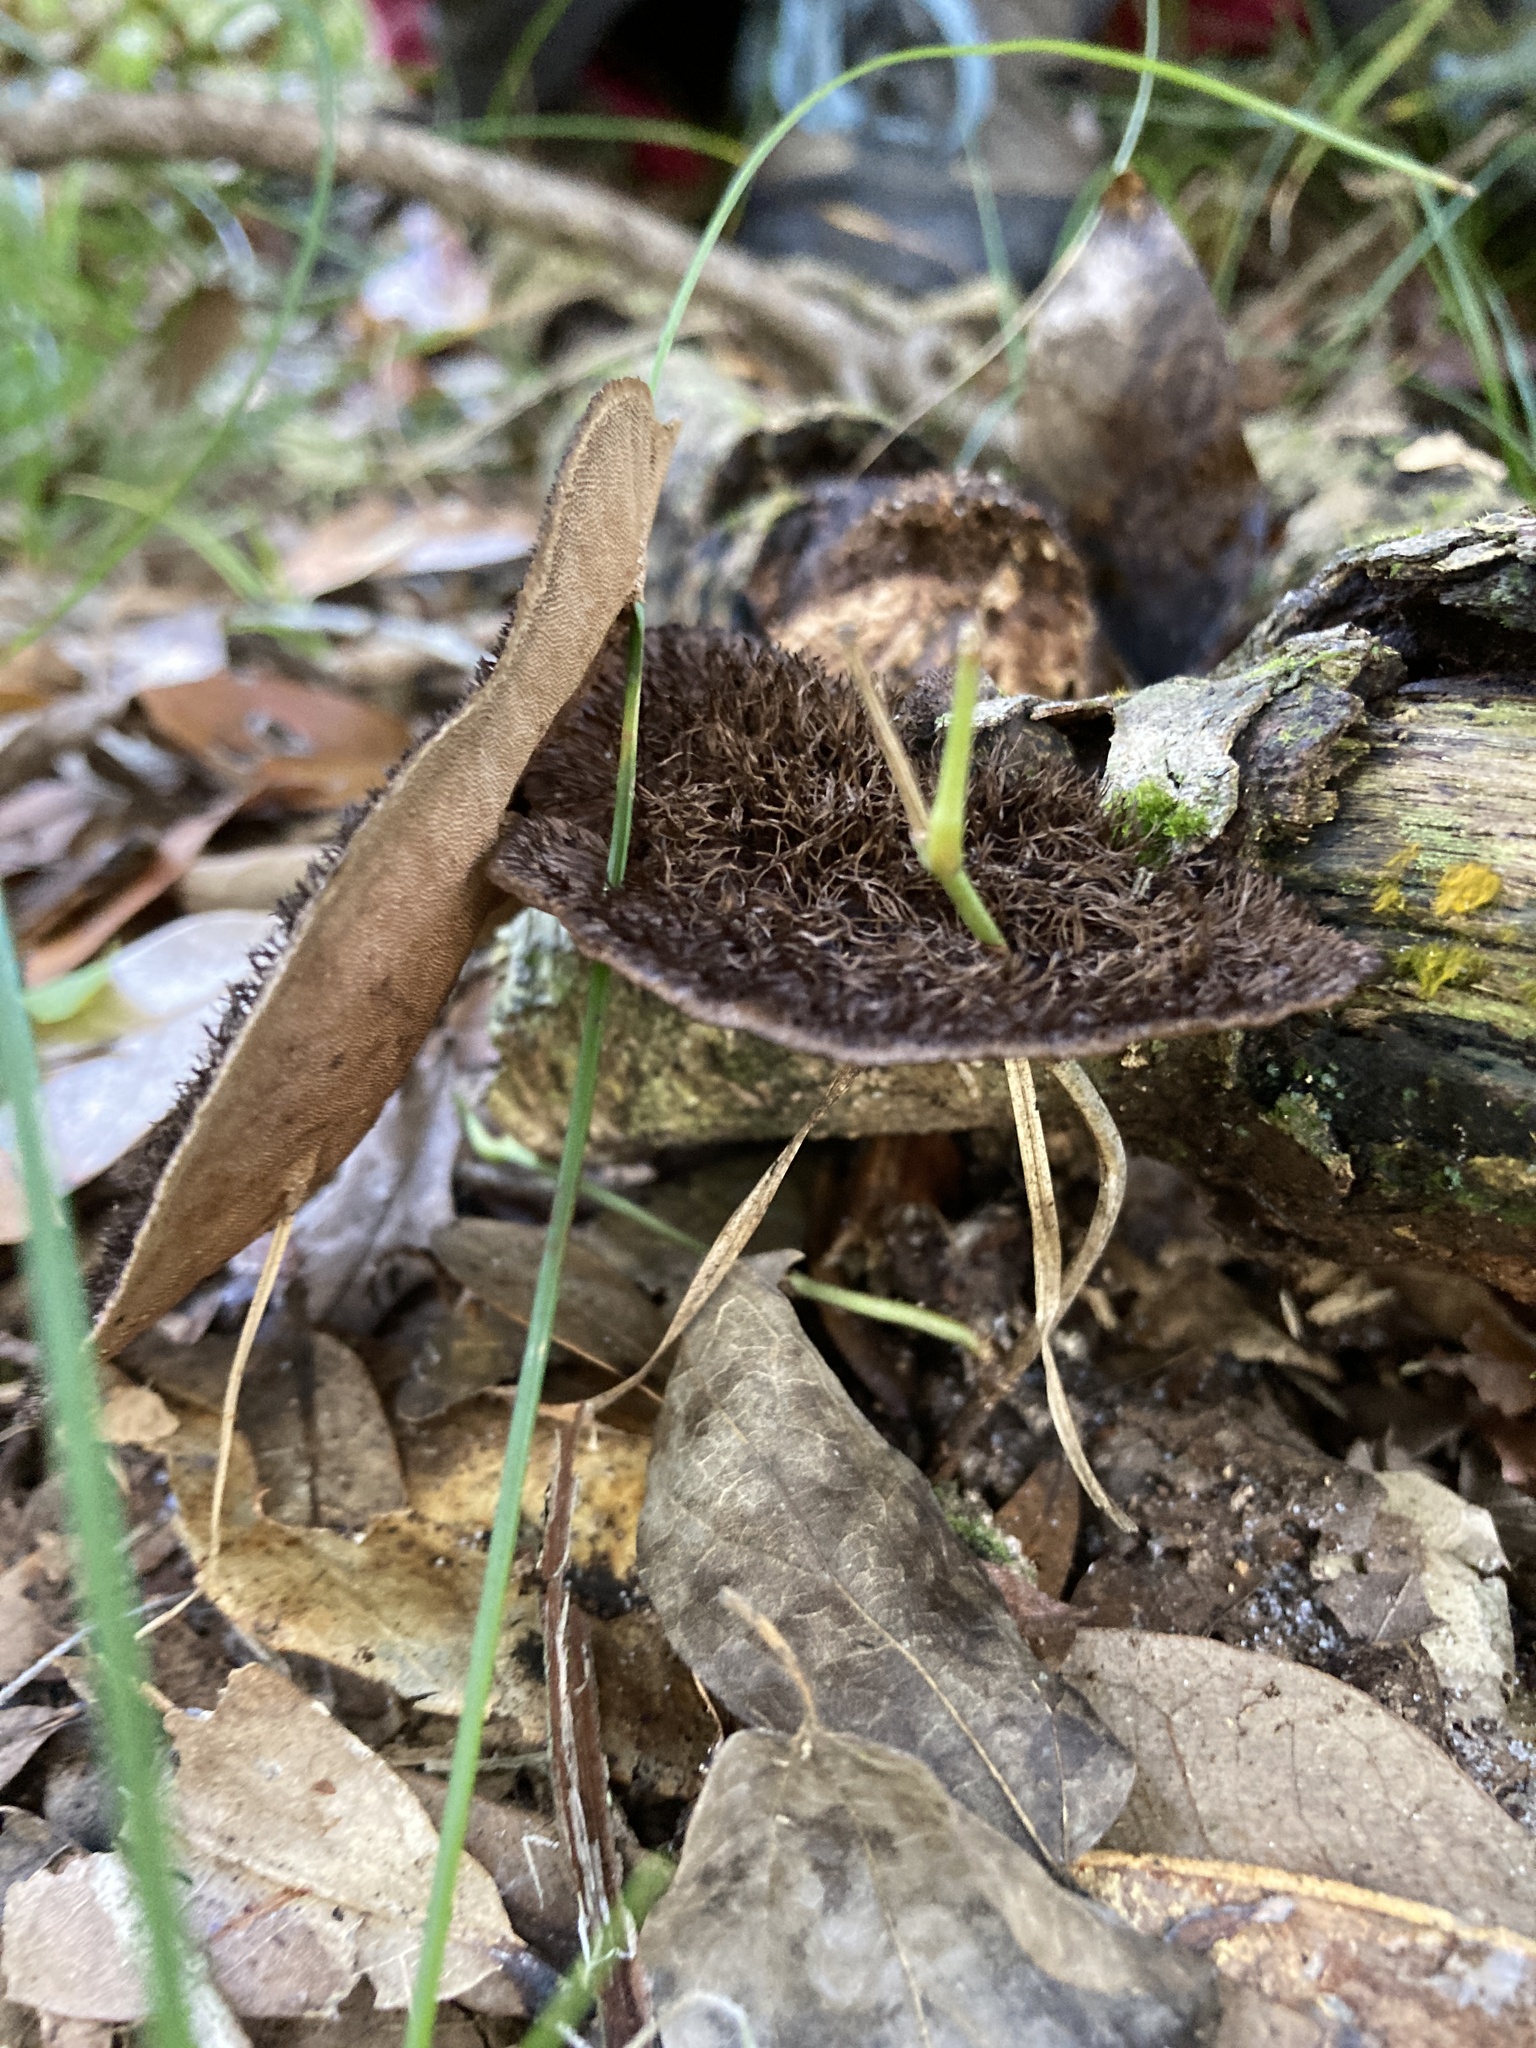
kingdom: Fungi
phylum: Basidiomycota
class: Agaricomycetes
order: Polyporales
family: Cerrenaceae
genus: Cerrena
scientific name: Cerrena hydnoides
